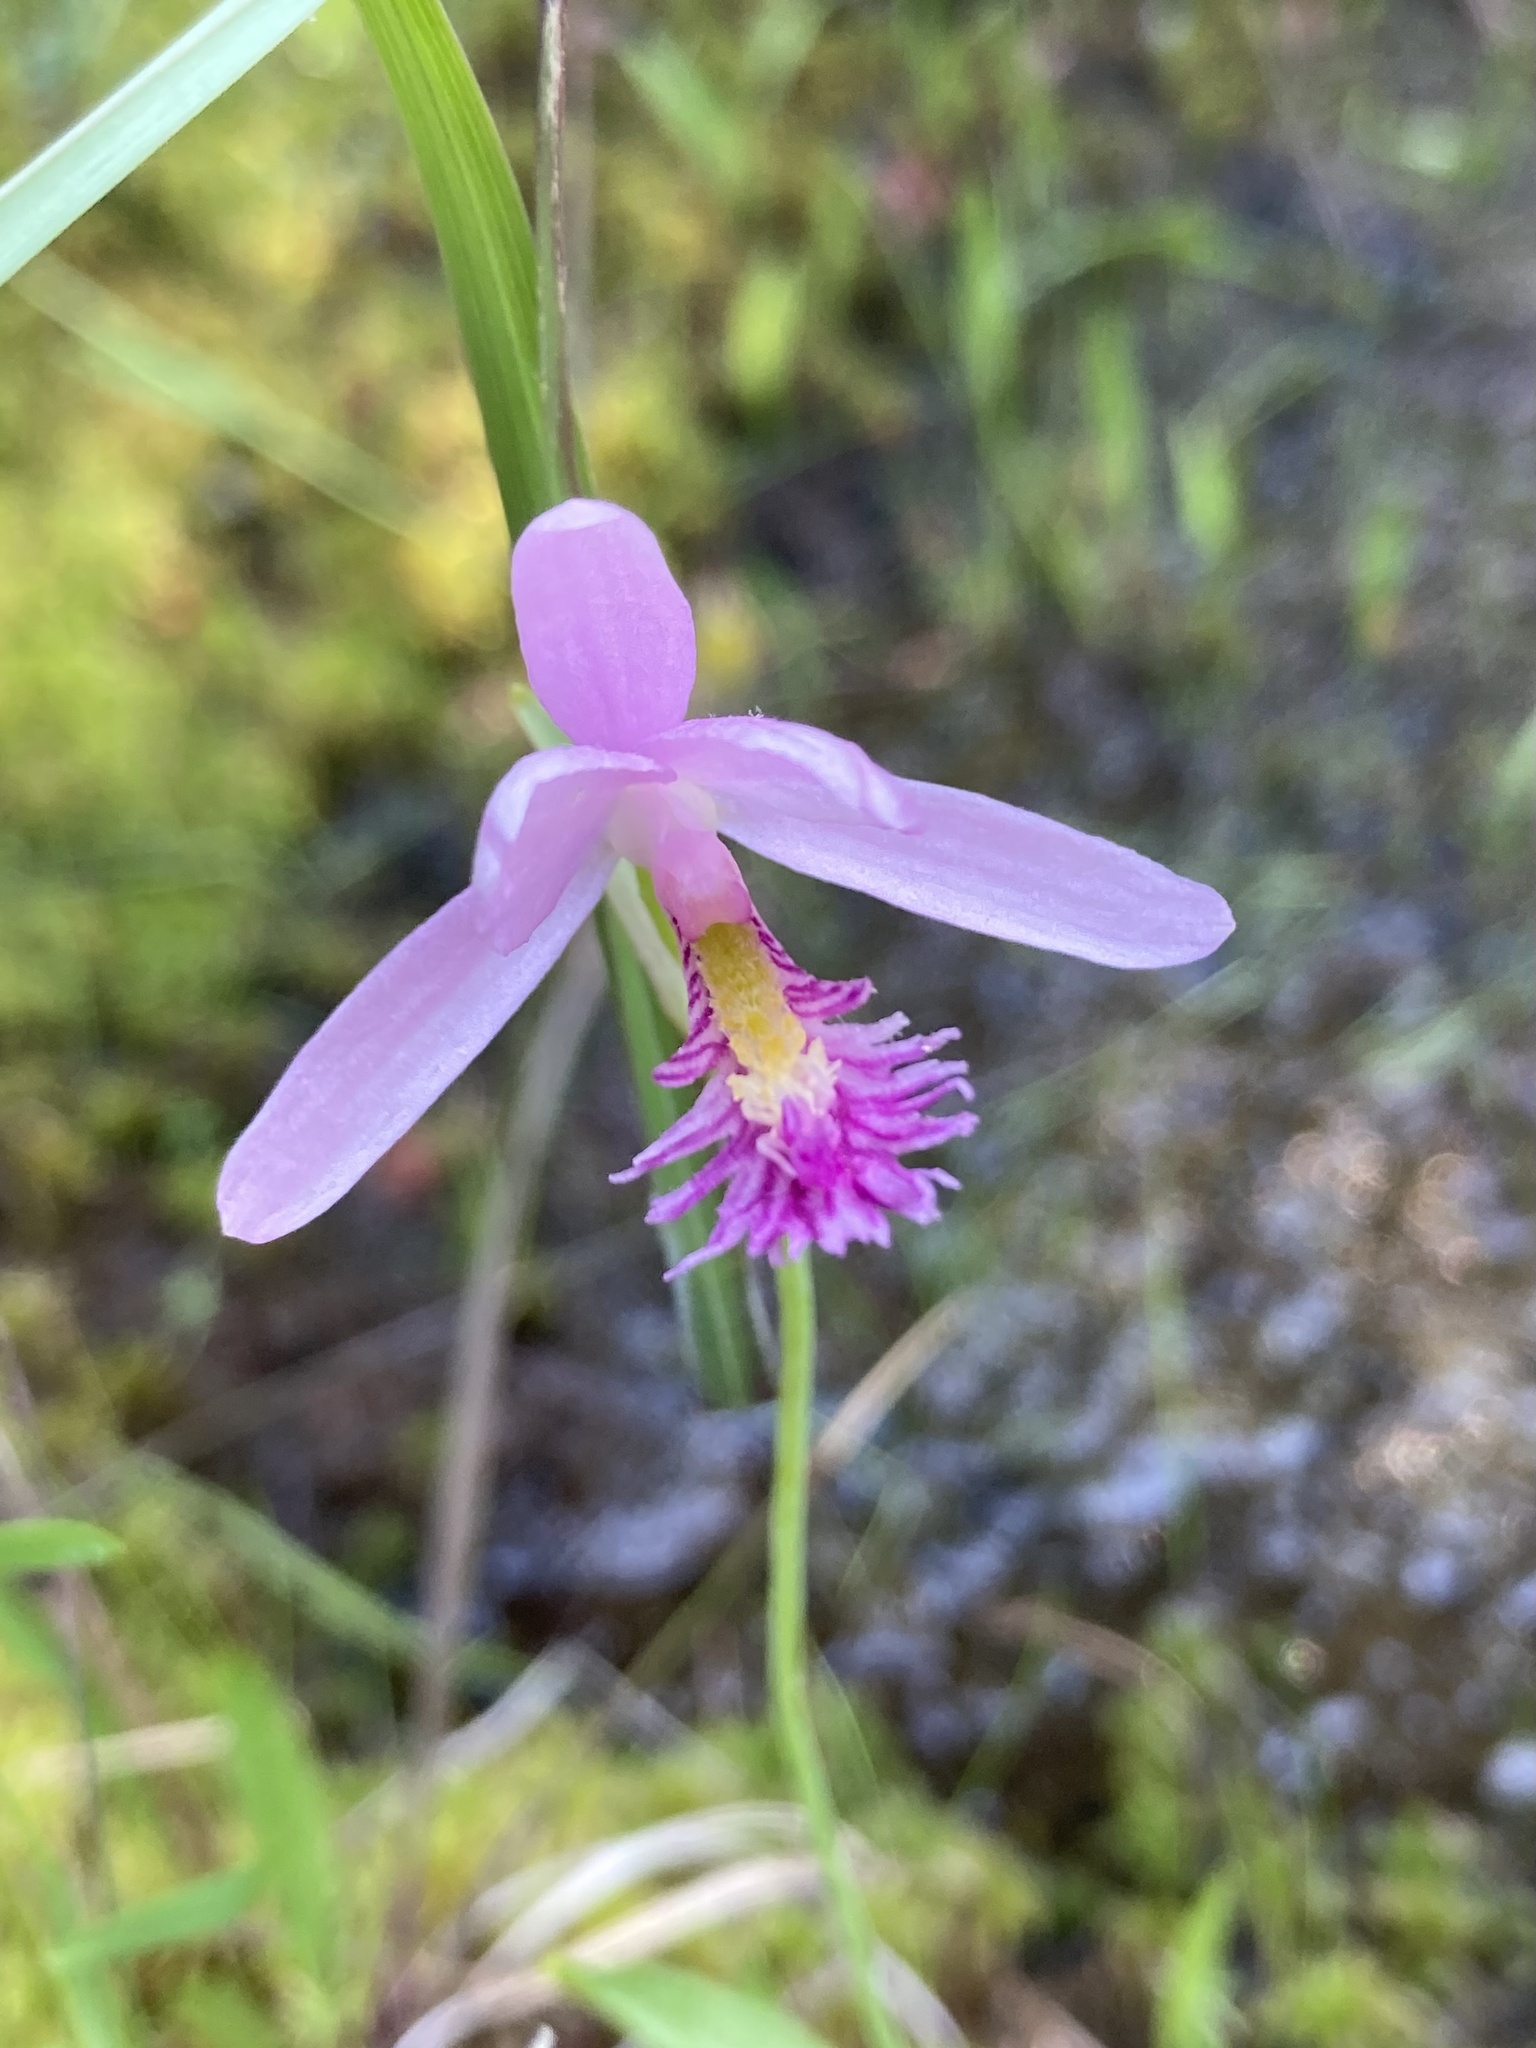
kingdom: Plantae
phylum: Tracheophyta
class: Liliopsida
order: Asparagales
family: Orchidaceae
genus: Pogonia
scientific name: Pogonia ophioglossoides
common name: Rose pogonia
